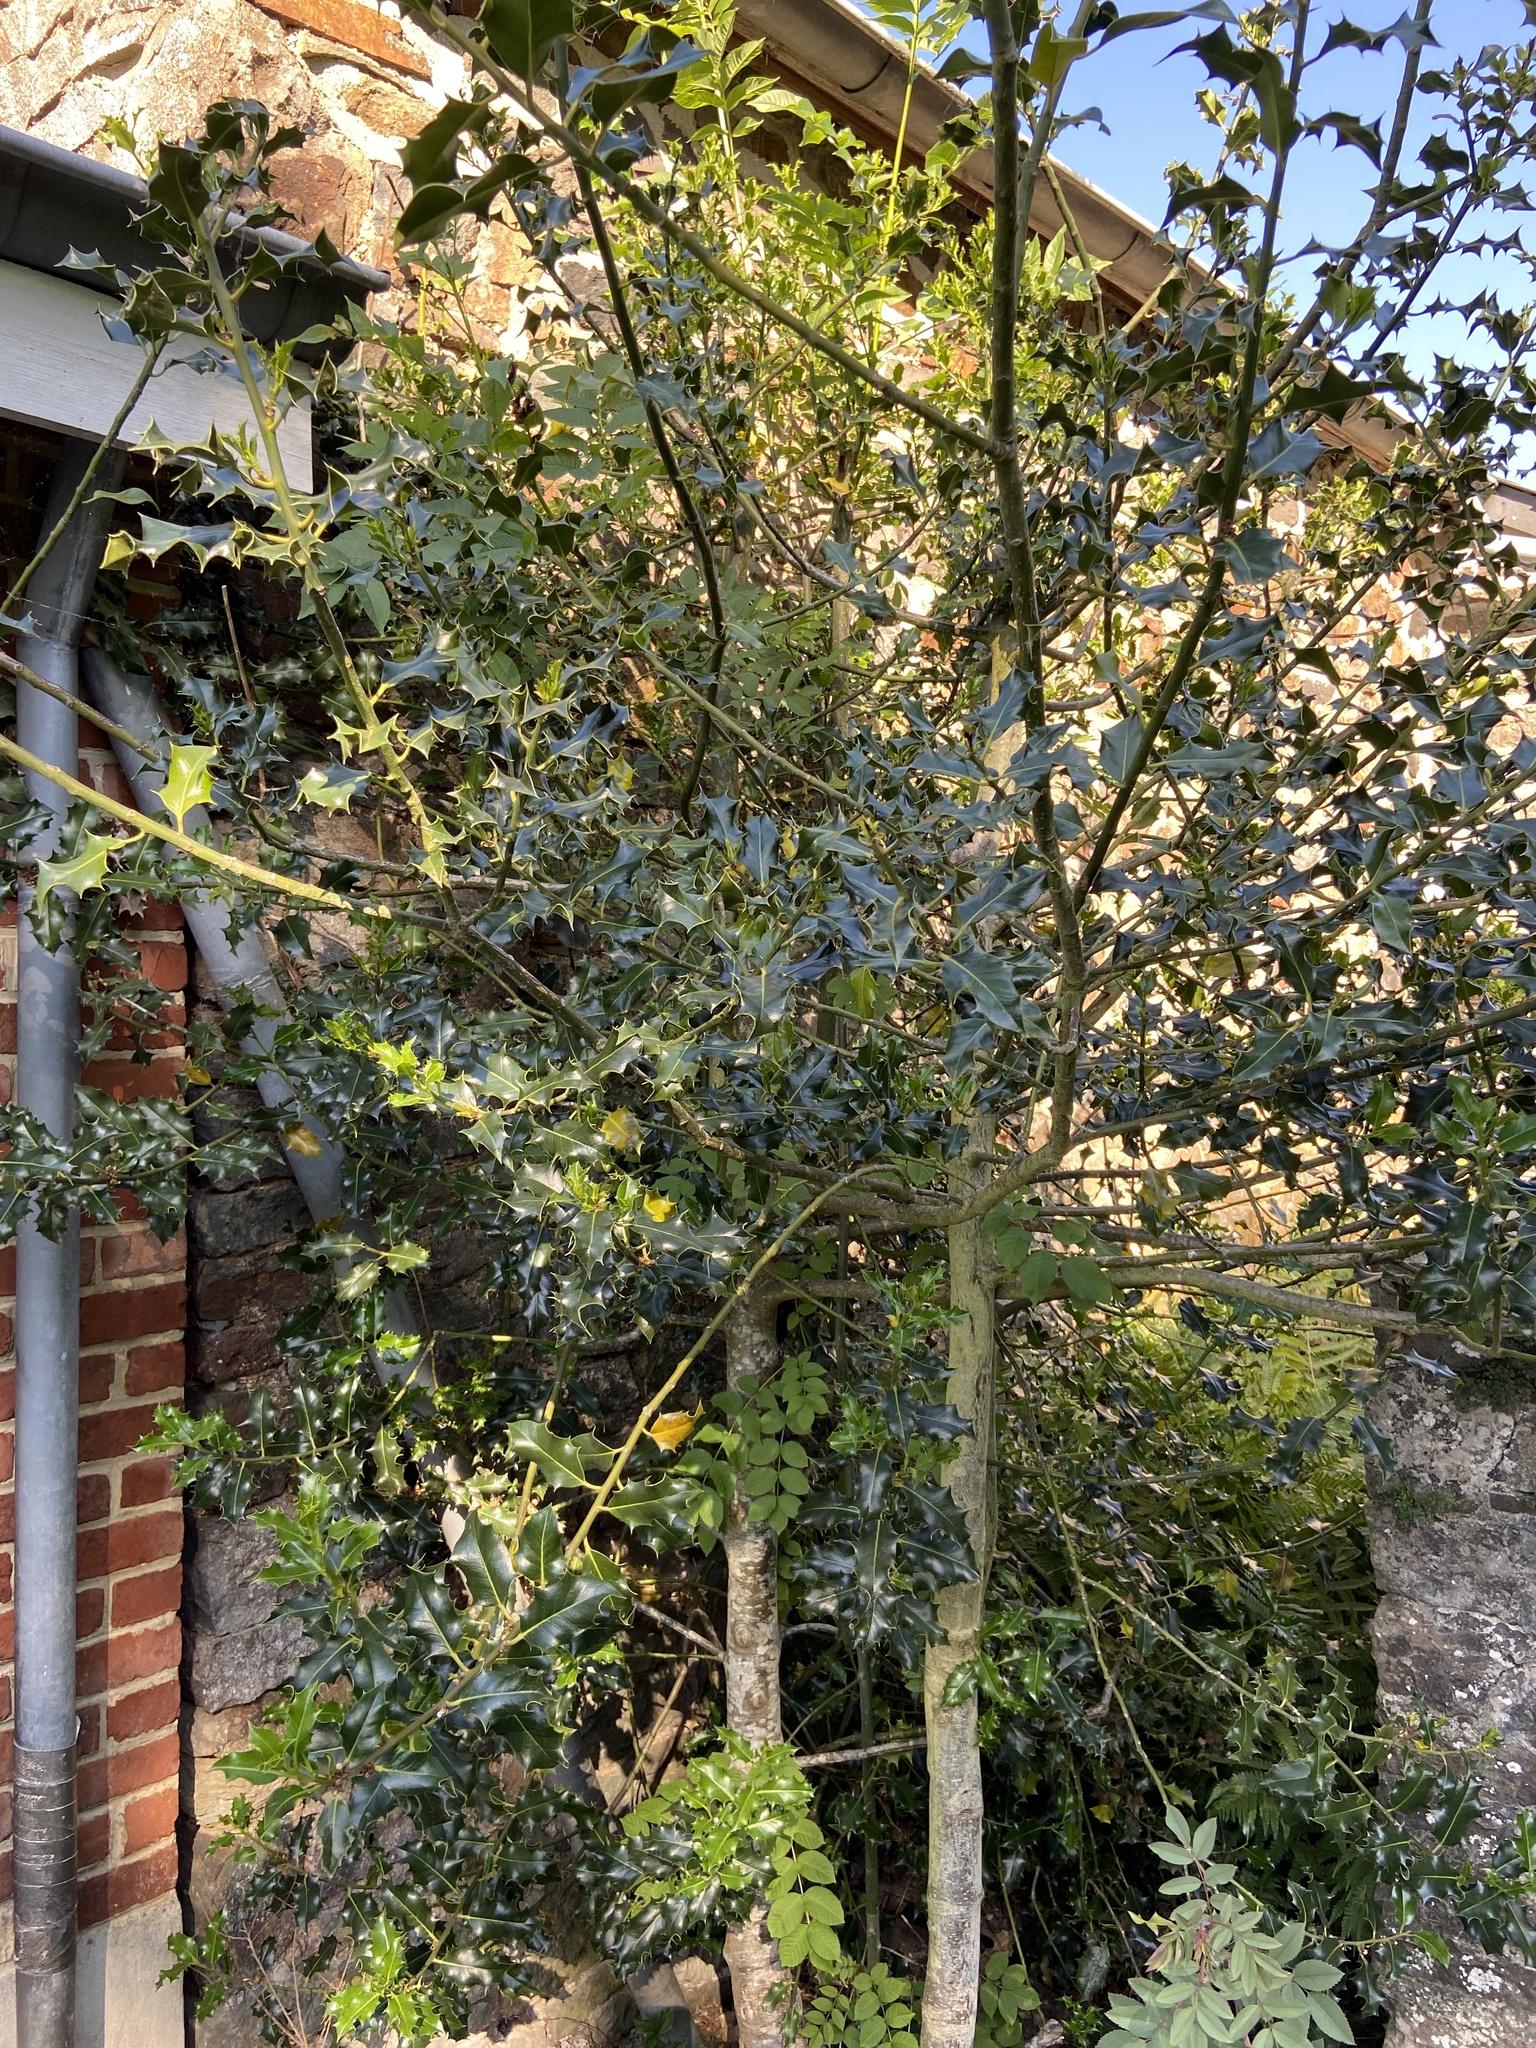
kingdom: Plantae
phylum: Tracheophyta
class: Magnoliopsida
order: Aquifoliales
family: Aquifoliaceae
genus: Ilex
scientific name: Ilex aquifolium
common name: English holly
